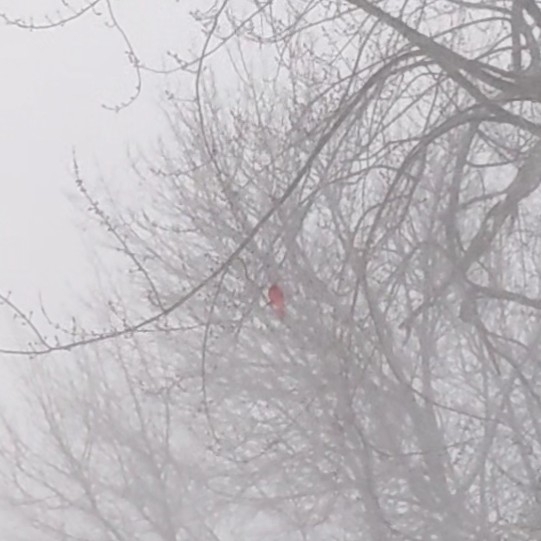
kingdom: Animalia
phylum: Chordata
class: Aves
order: Passeriformes
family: Cardinalidae
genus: Cardinalis
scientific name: Cardinalis cardinalis
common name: Northern cardinal
